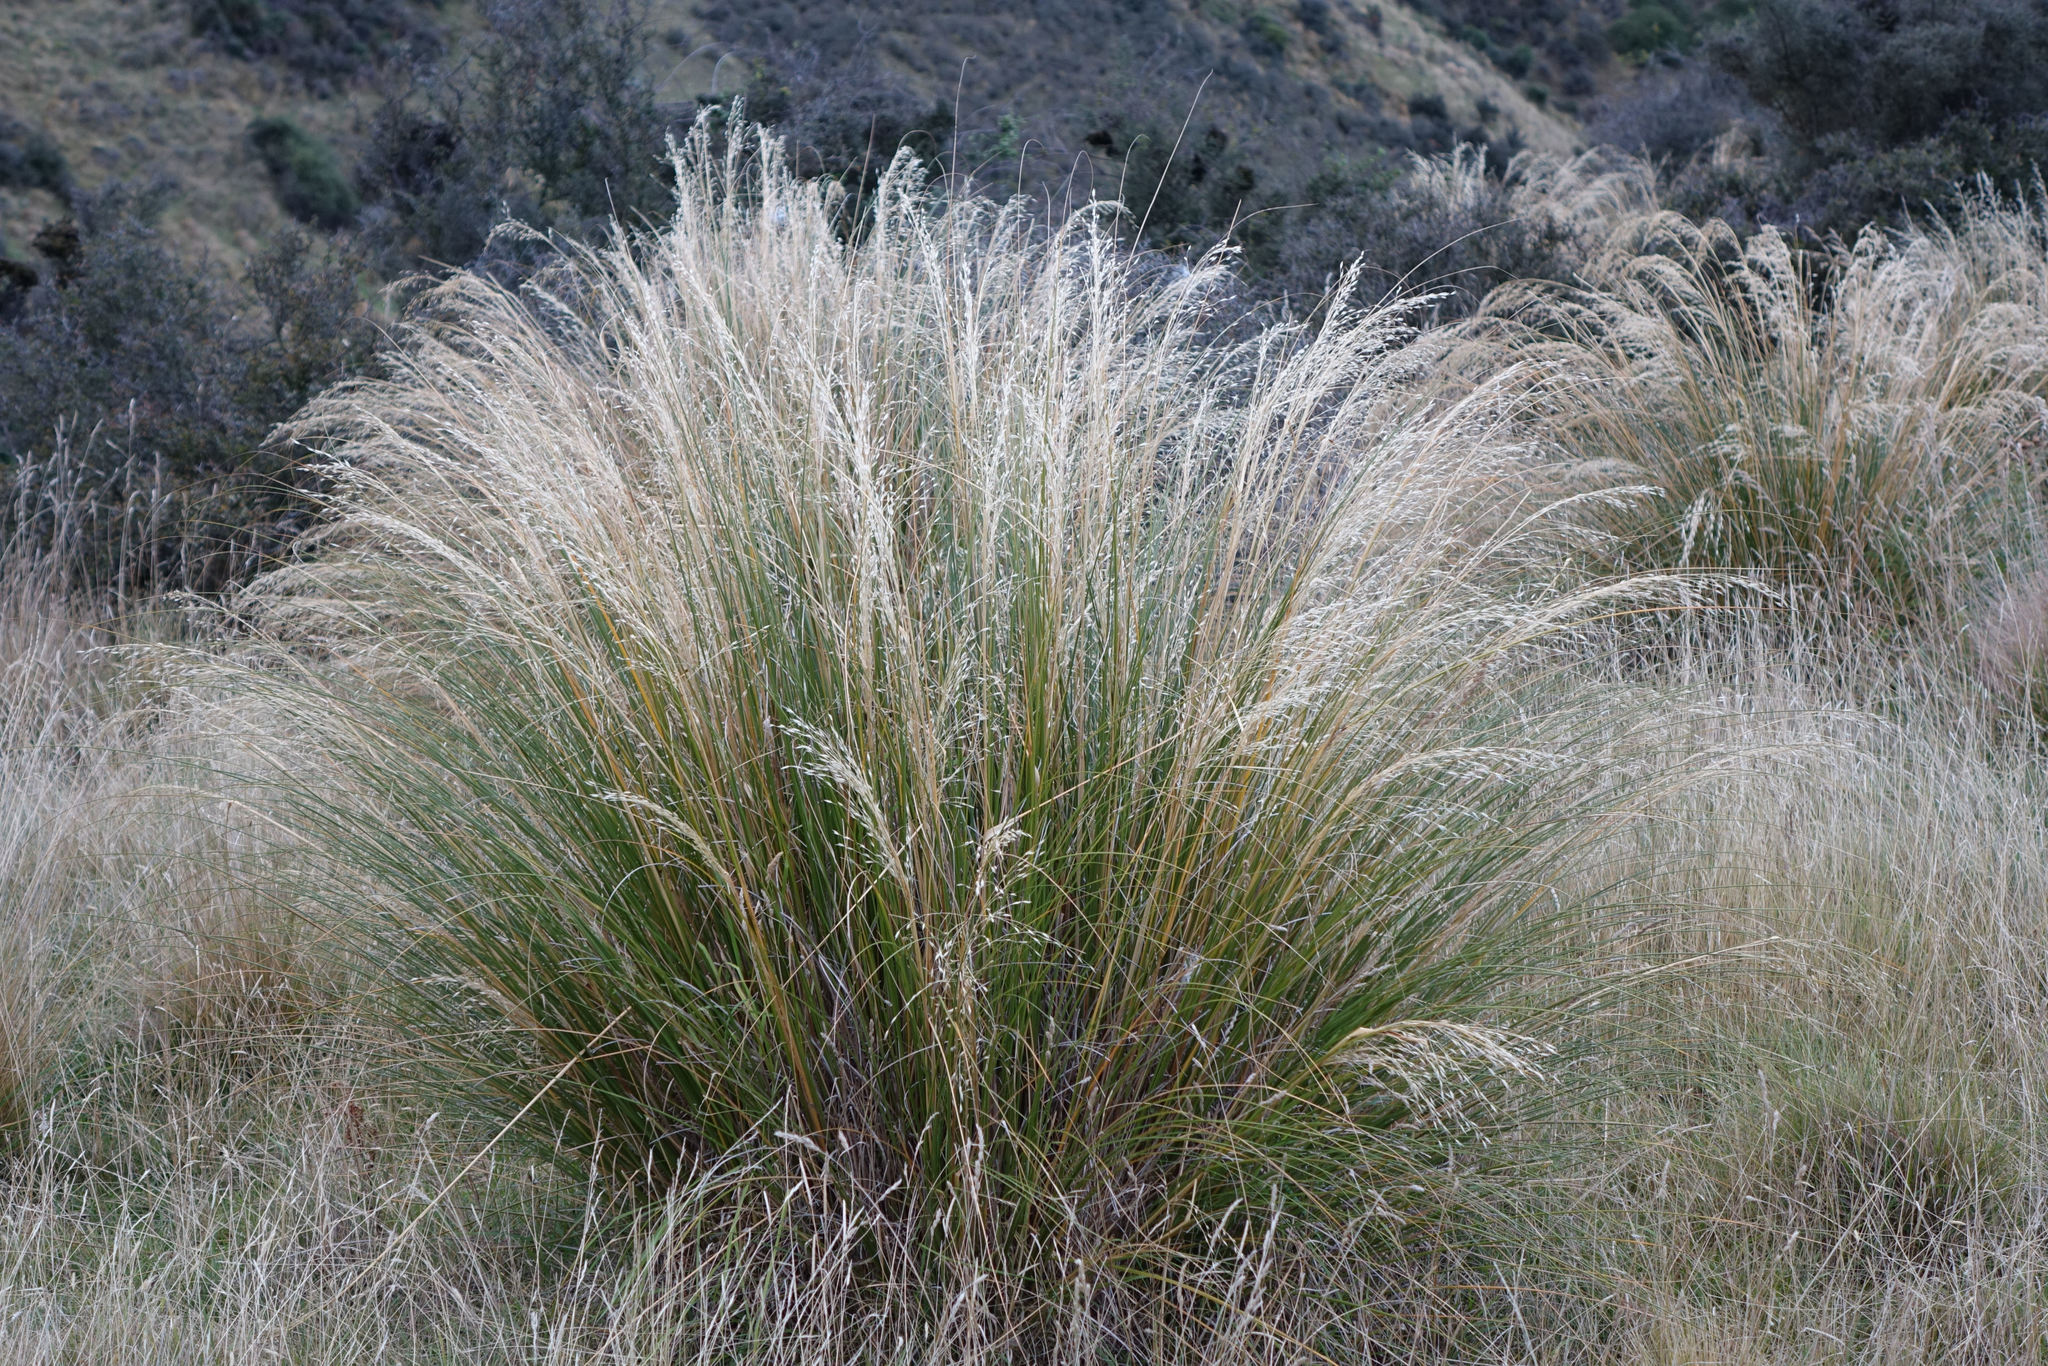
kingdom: Plantae
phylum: Tracheophyta
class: Liliopsida
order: Poales
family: Poaceae
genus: Chionochloa
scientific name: Chionochloa rigida
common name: Narrow leaved snow tussock
